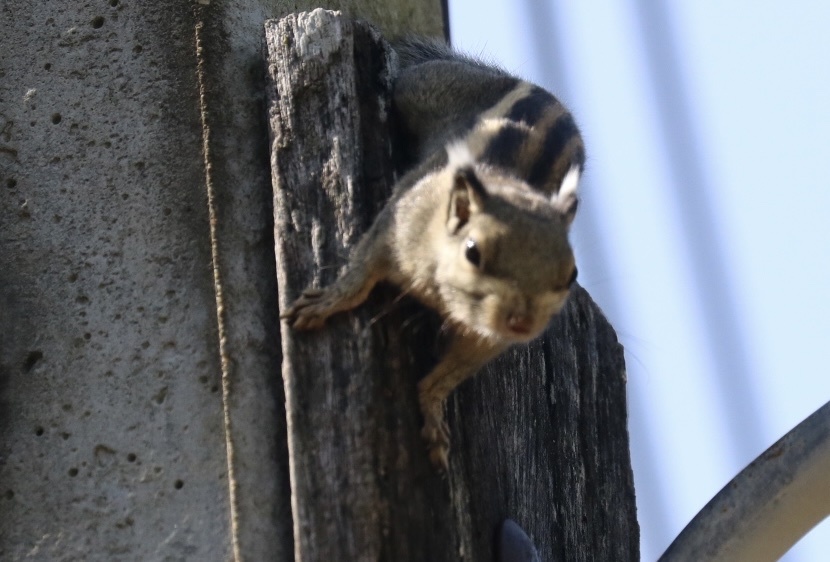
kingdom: Animalia
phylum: Chordata
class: Mammalia
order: Rodentia
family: Sciuridae
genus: Tamiops
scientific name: Tamiops mcclellandii
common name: Himalayan striped squirrel
